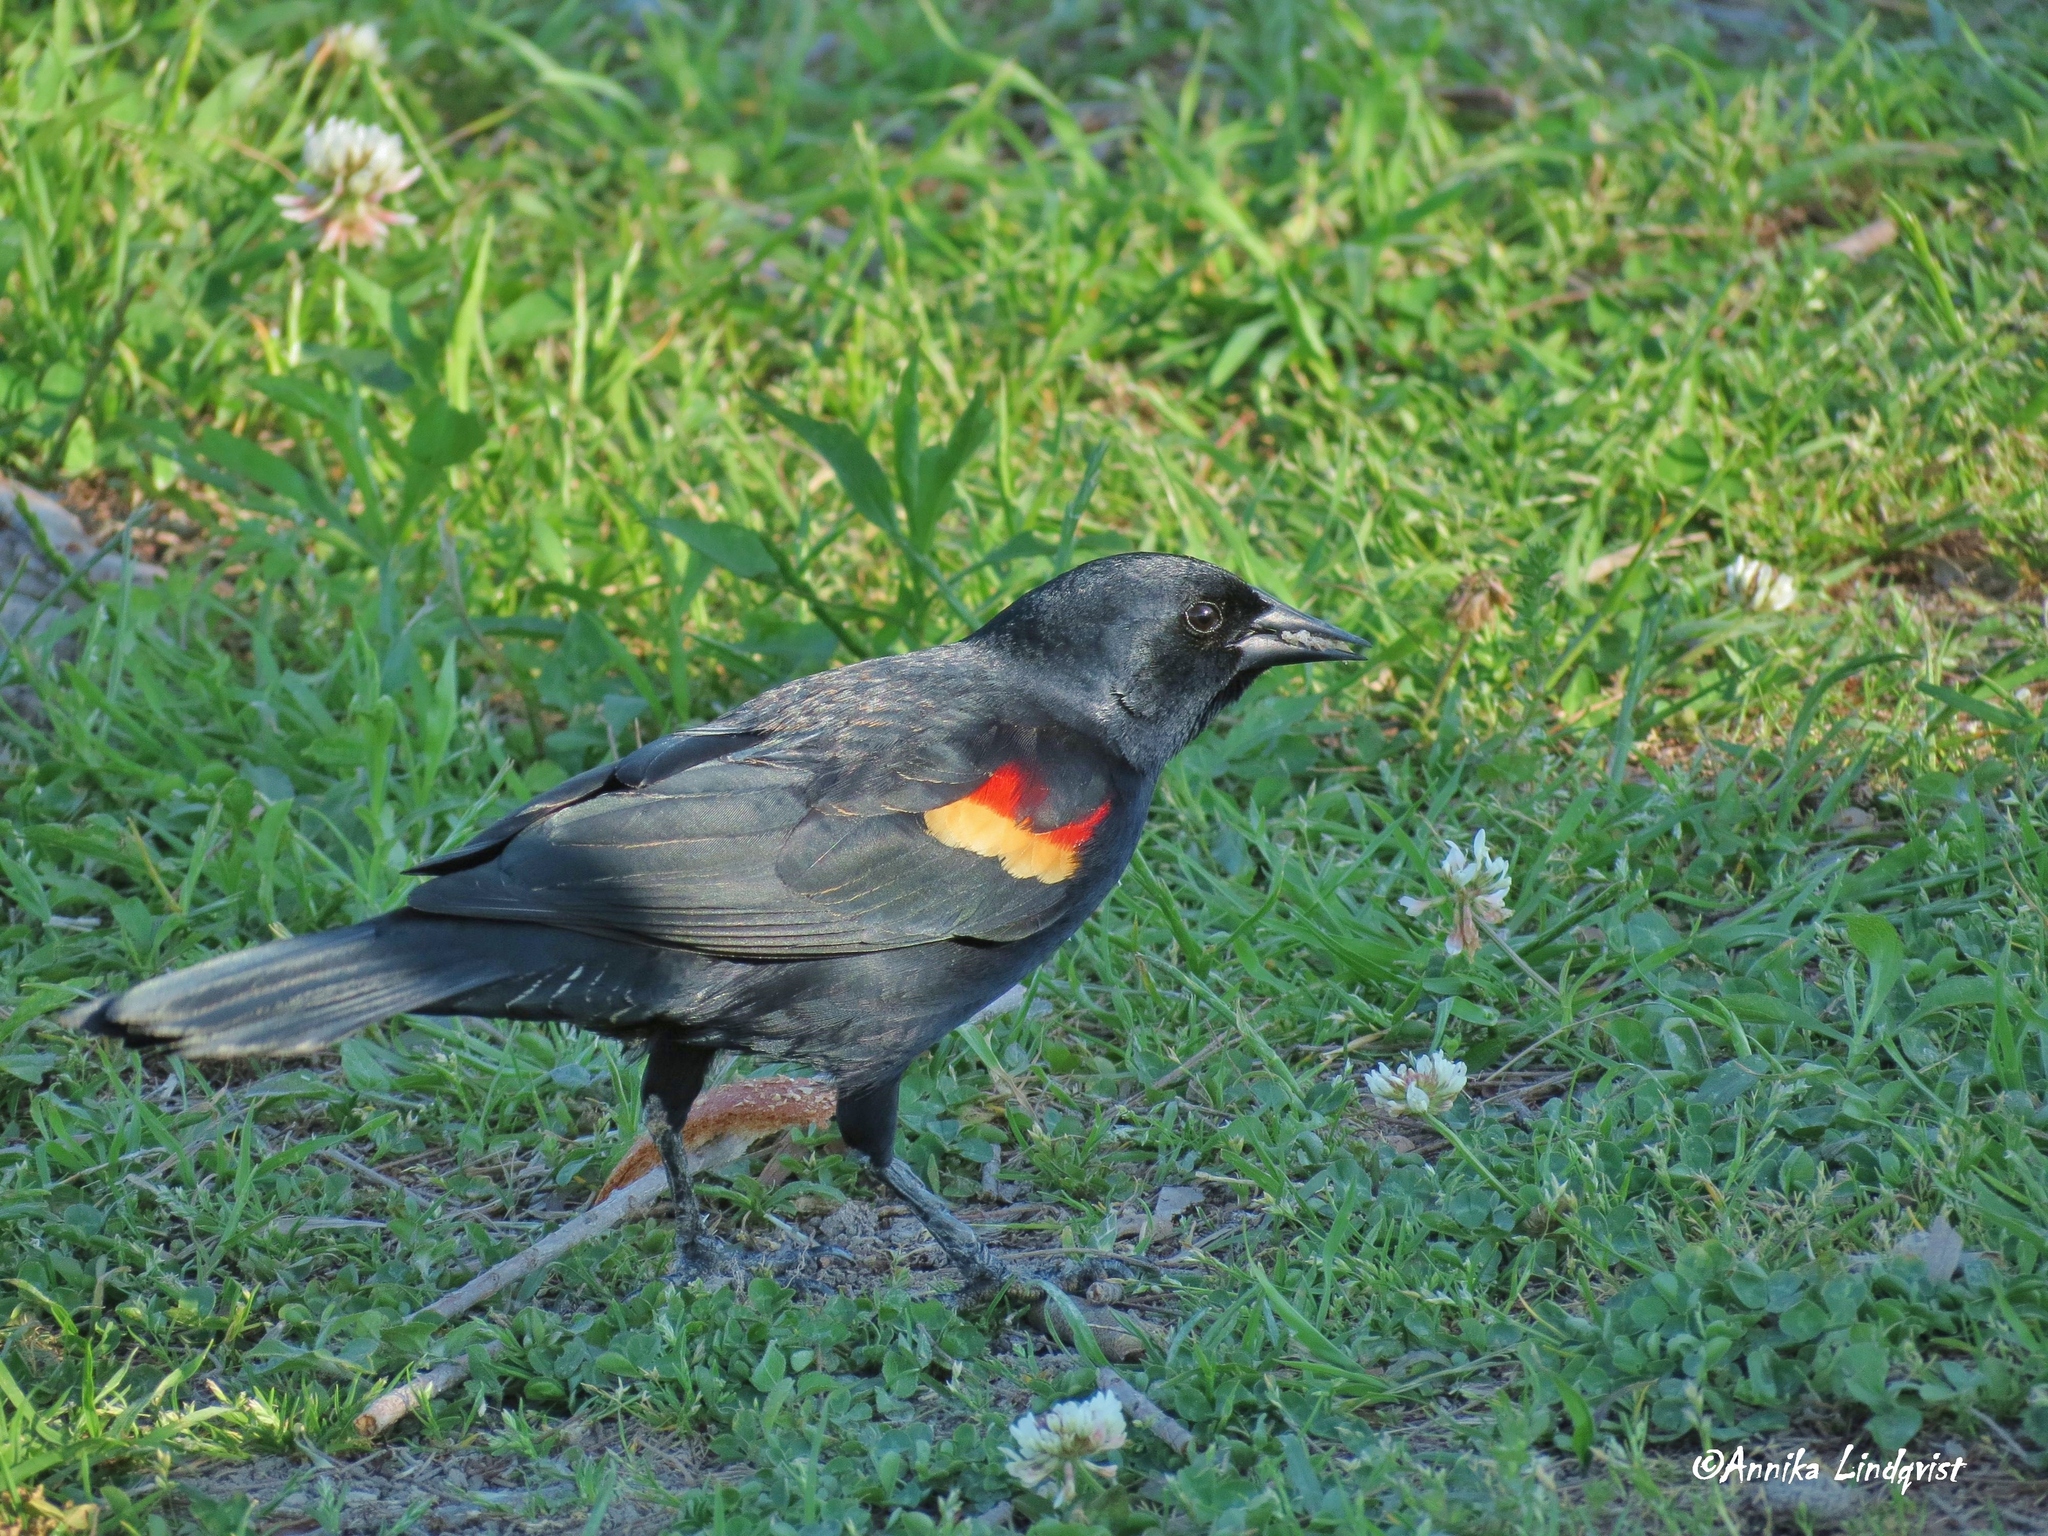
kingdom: Animalia
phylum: Chordata
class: Aves
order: Passeriformes
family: Icteridae
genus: Agelaius
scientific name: Agelaius phoeniceus
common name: Red-winged blackbird
